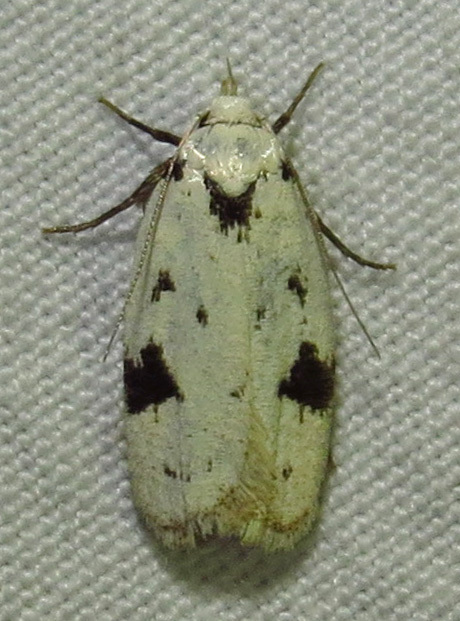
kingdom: Animalia
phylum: Arthropoda
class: Insecta
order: Lepidoptera
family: Oecophoridae
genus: Inga
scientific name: Inga sparsiciliella
